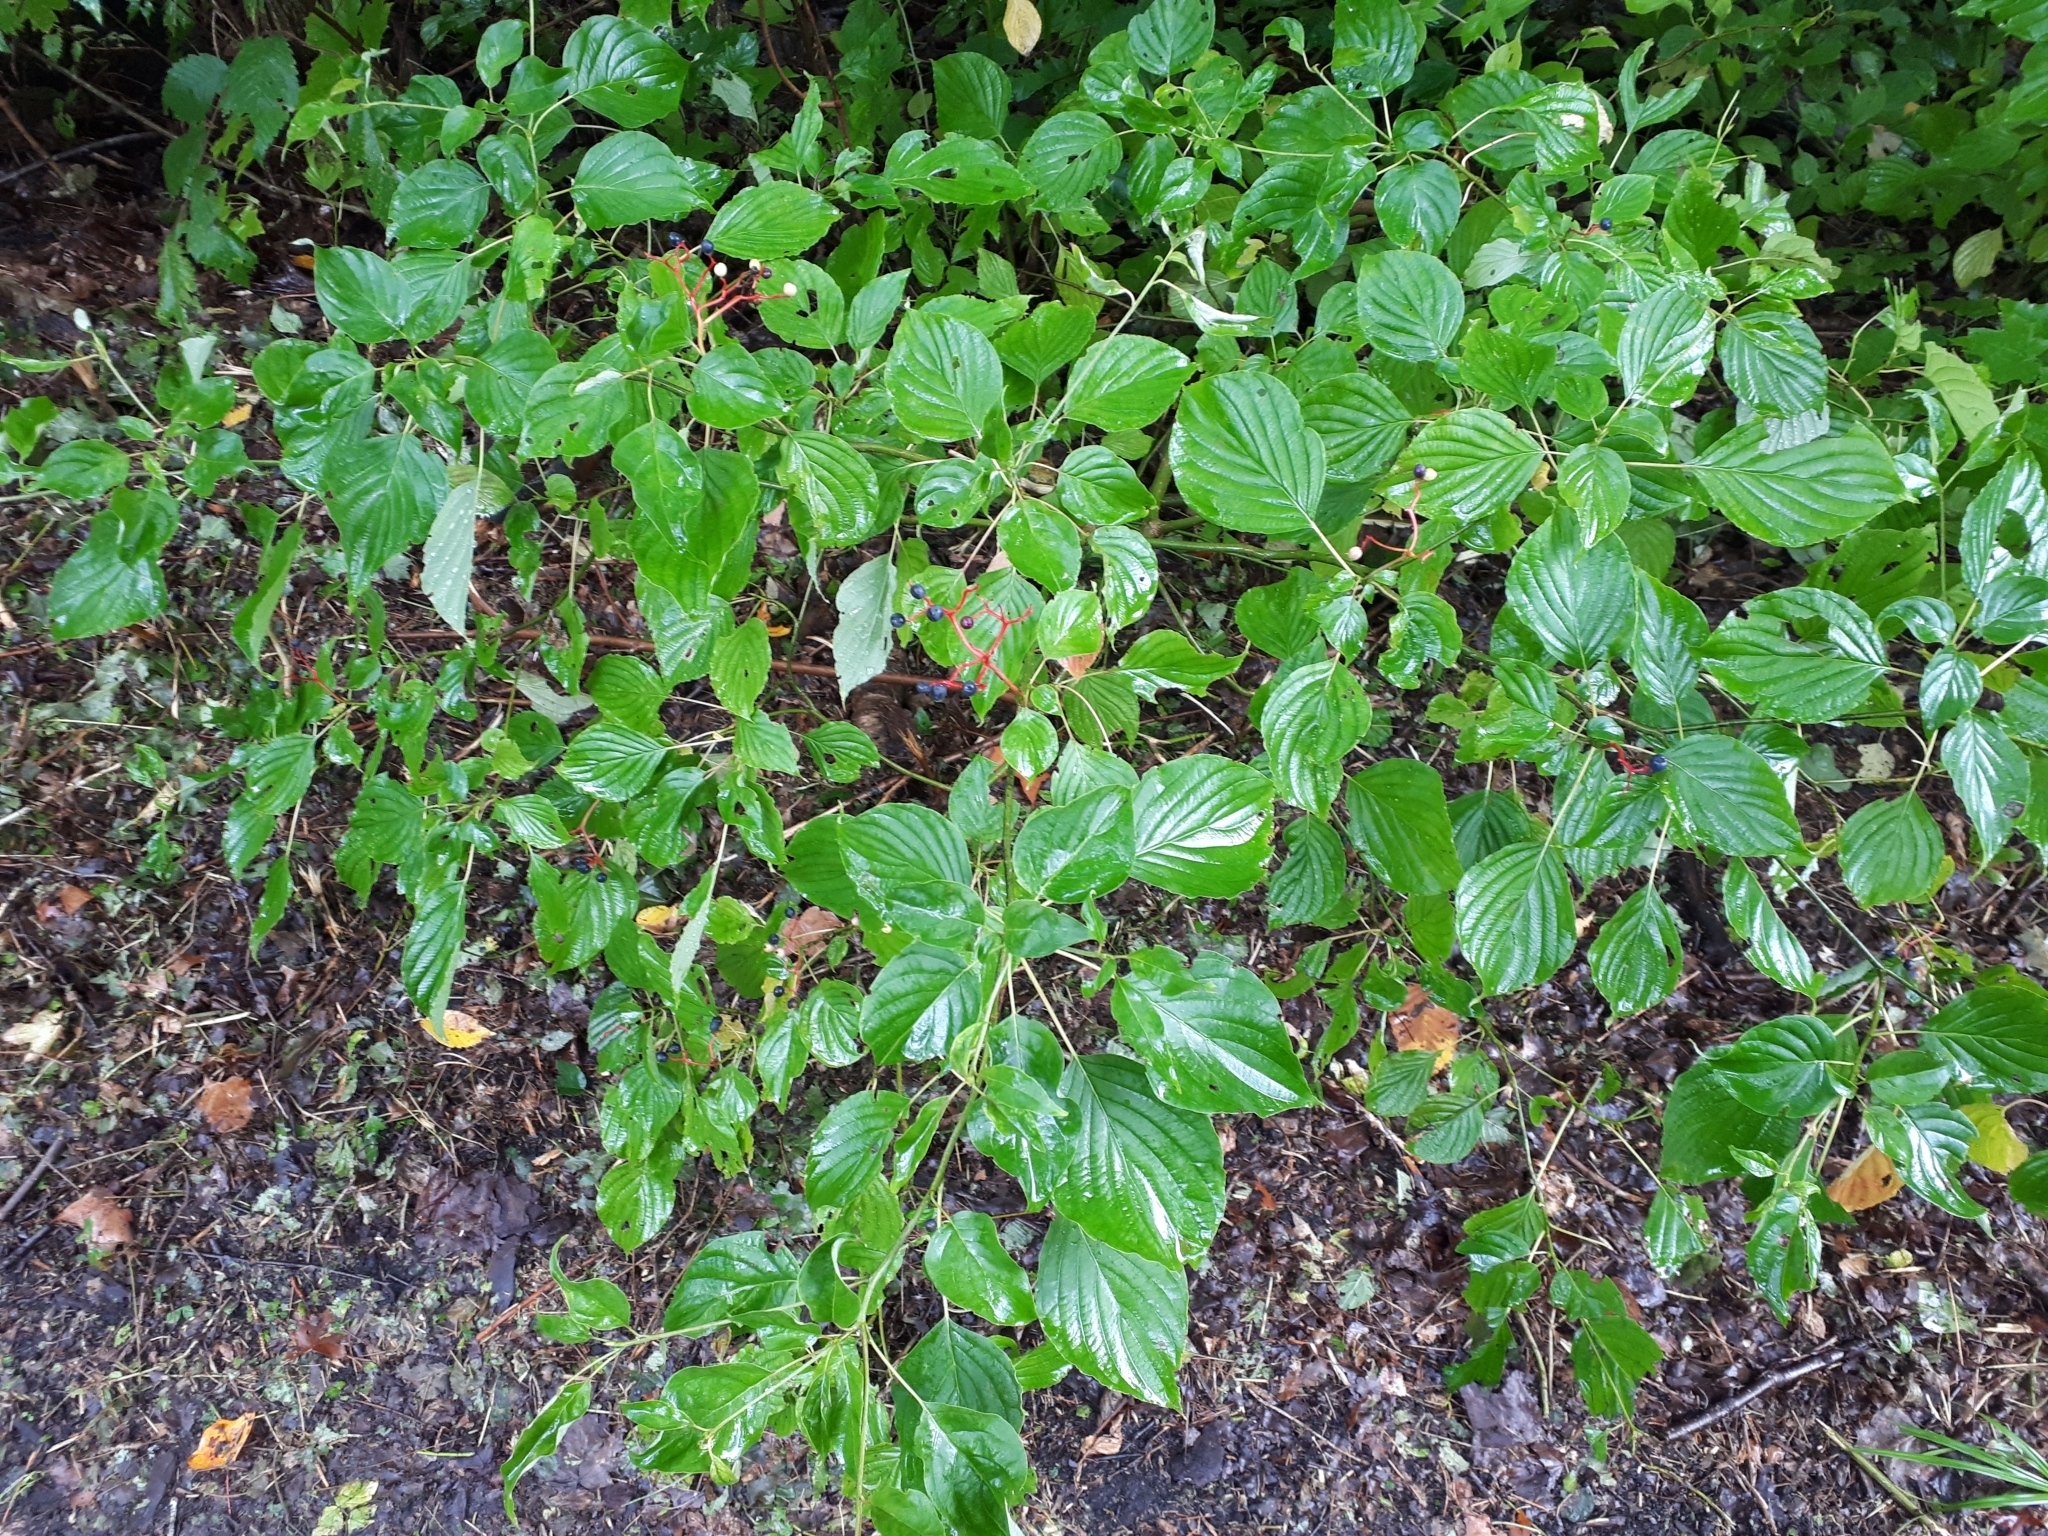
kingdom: Plantae
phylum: Tracheophyta
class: Magnoliopsida
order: Cornales
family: Cornaceae
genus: Cornus
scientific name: Cornus alternifolia
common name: Pagoda dogwood
